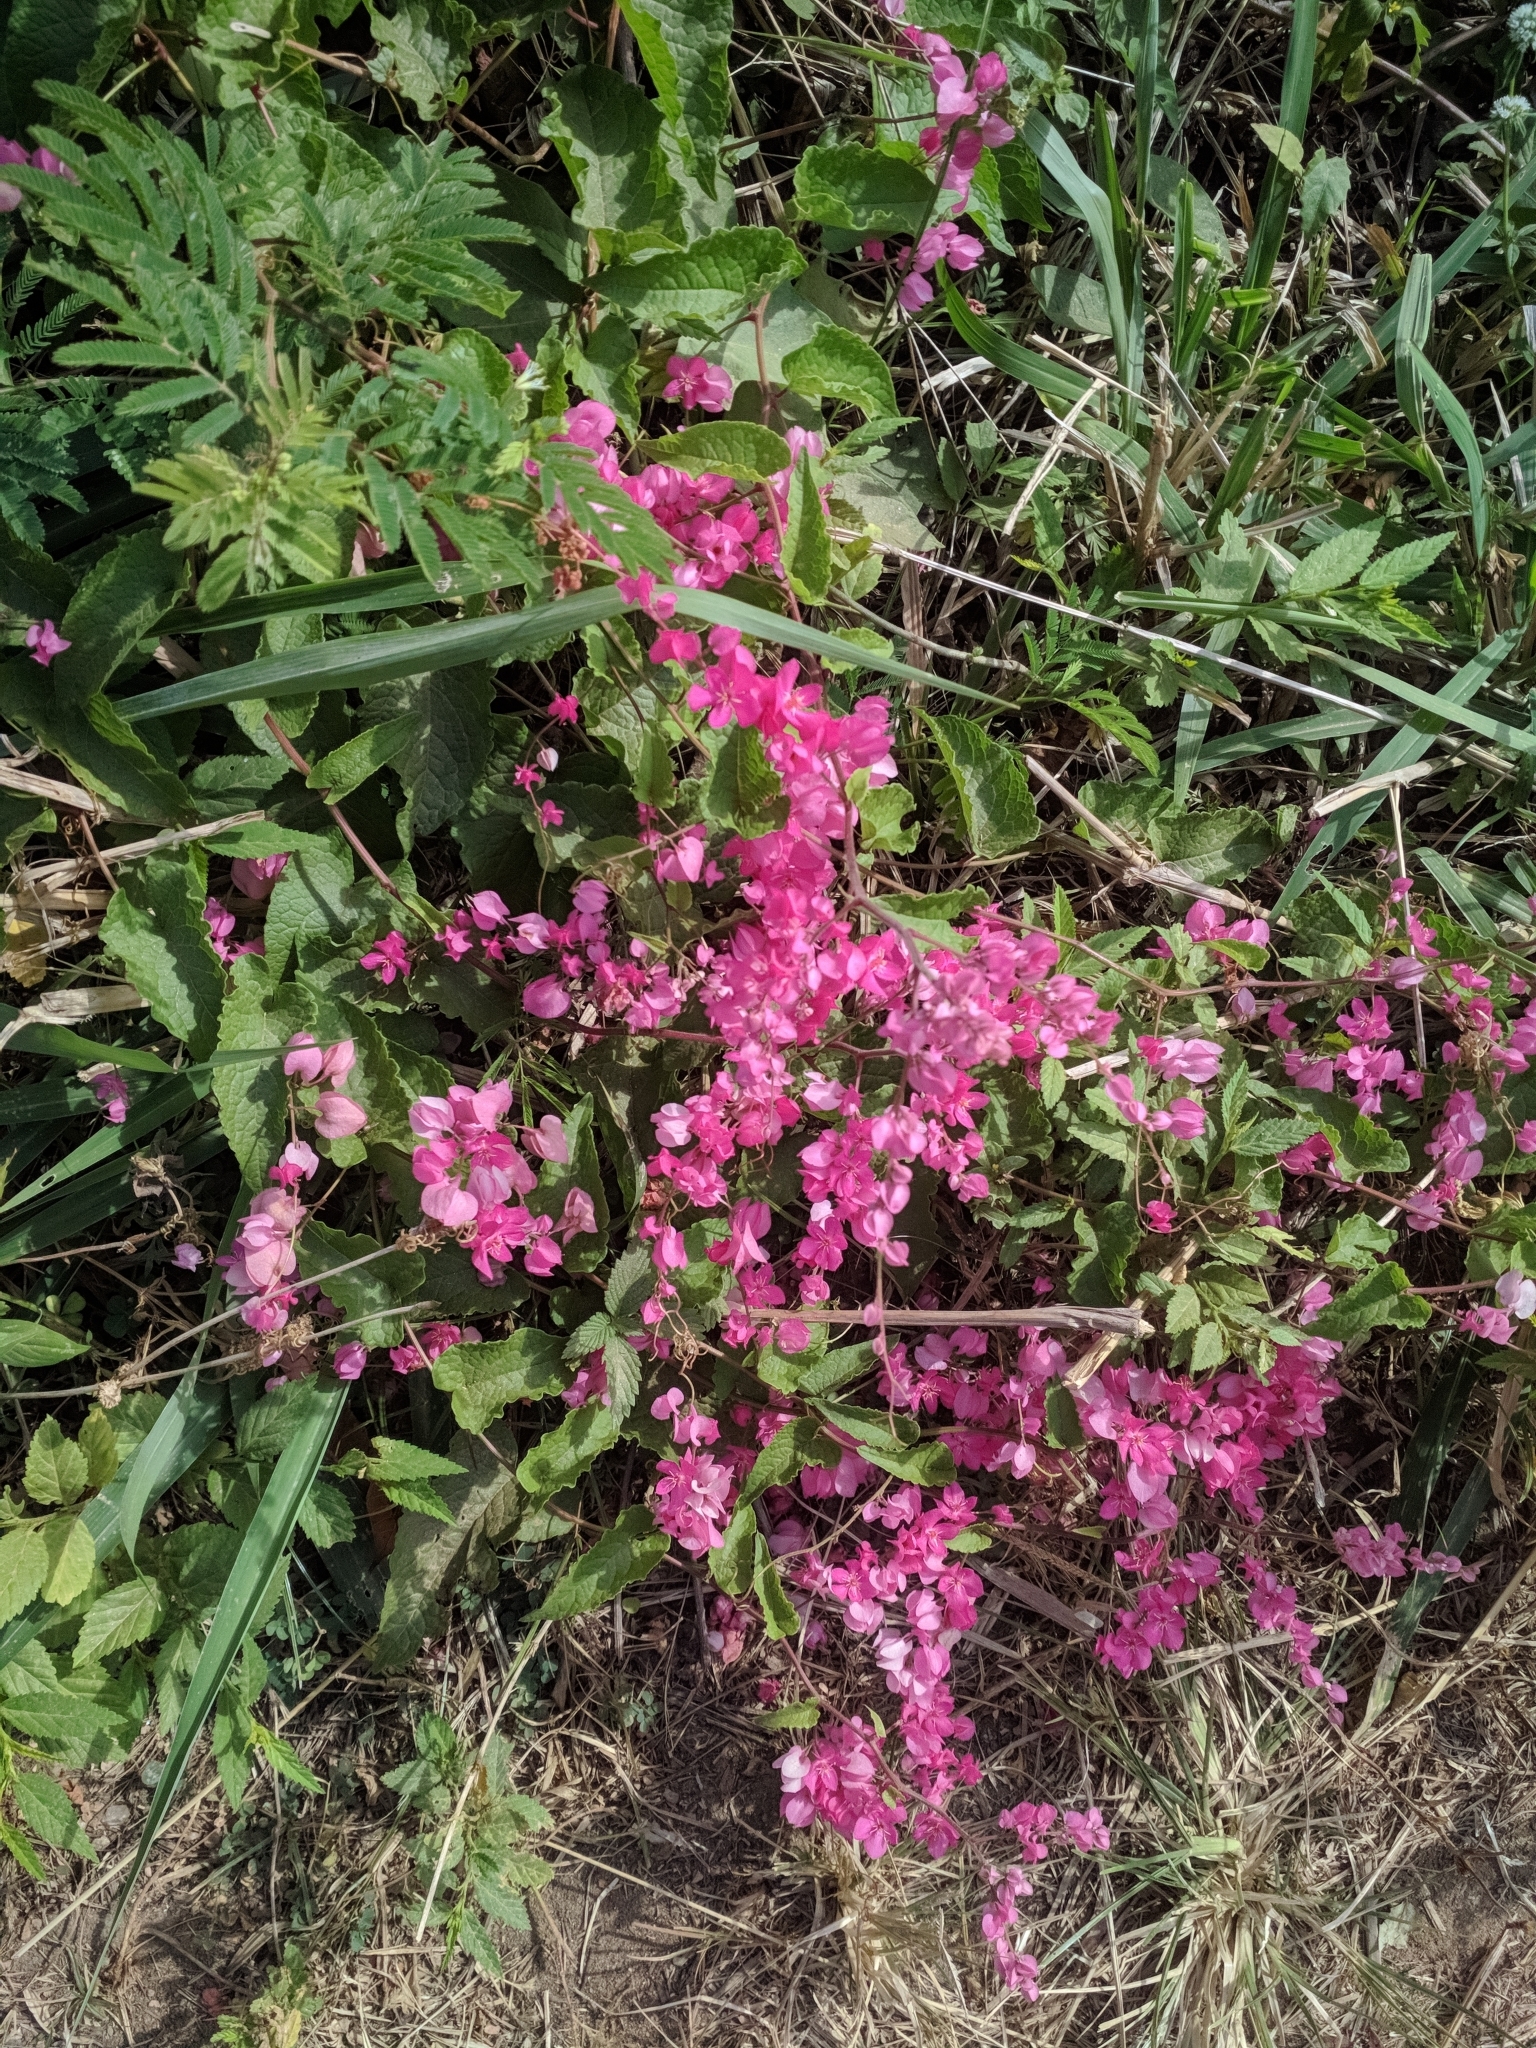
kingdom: Plantae
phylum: Tracheophyta
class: Magnoliopsida
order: Caryophyllales
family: Polygonaceae
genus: Antigonon
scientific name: Antigonon leptopus
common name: Coral vine
